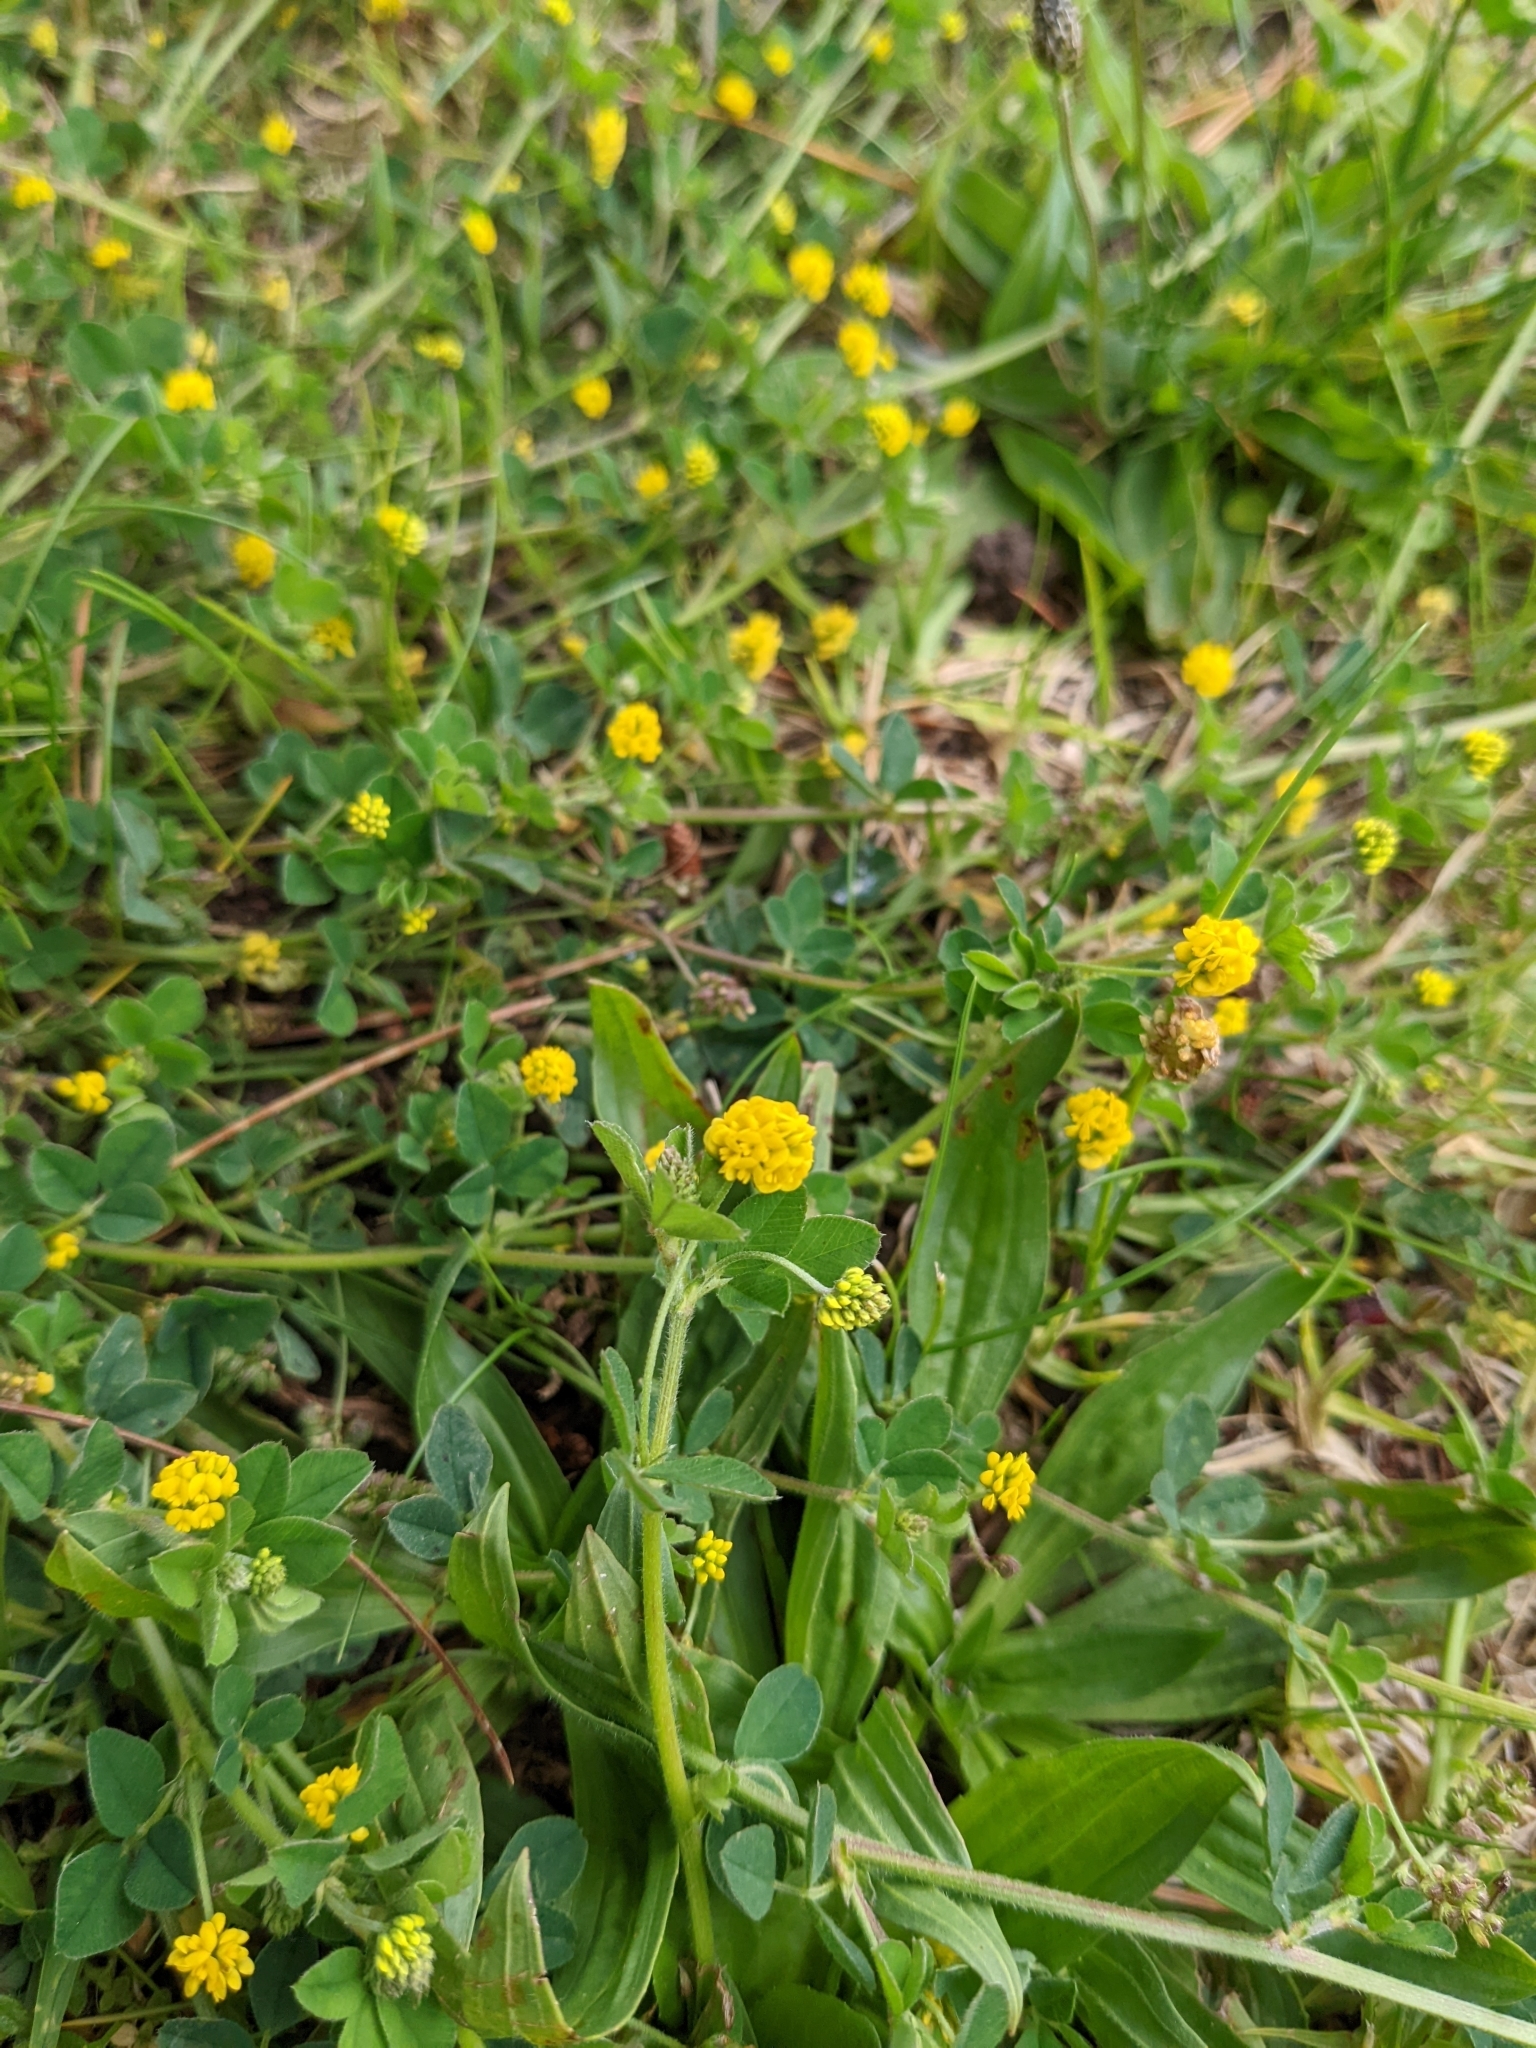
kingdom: Plantae
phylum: Tracheophyta
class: Magnoliopsida
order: Fabales
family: Fabaceae
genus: Medicago
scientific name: Medicago lupulina
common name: Black medick
